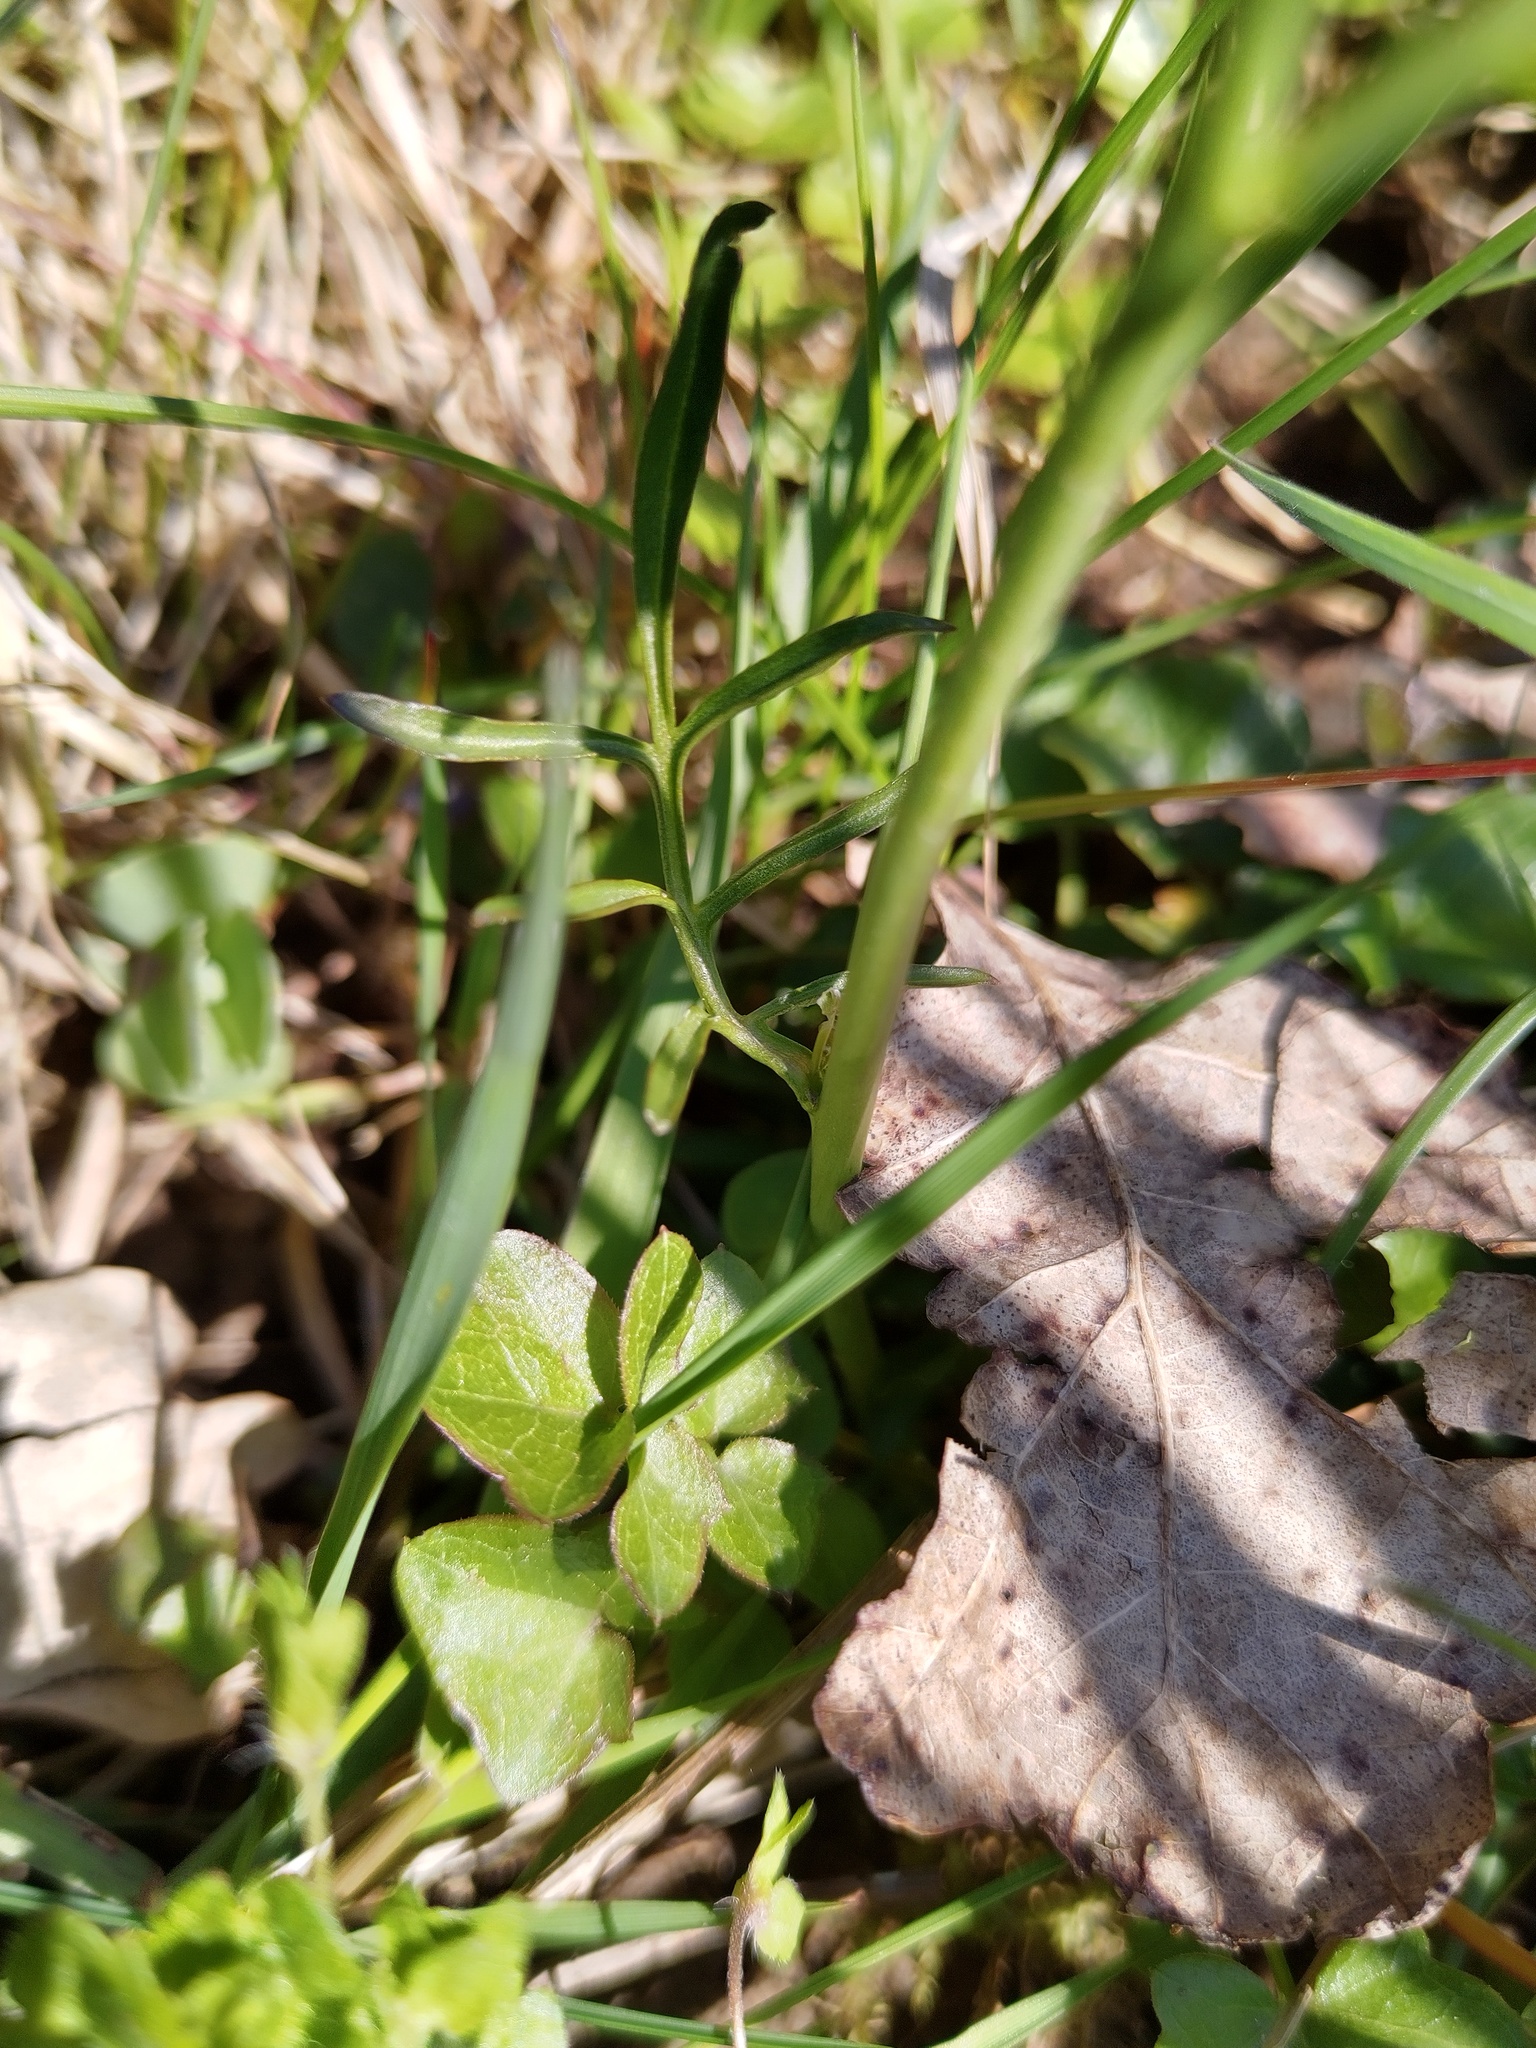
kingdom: Plantae
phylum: Tracheophyta
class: Magnoliopsida
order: Brassicales
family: Brassicaceae
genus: Cardamine
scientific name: Cardamine pratensis
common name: Cuckoo flower
